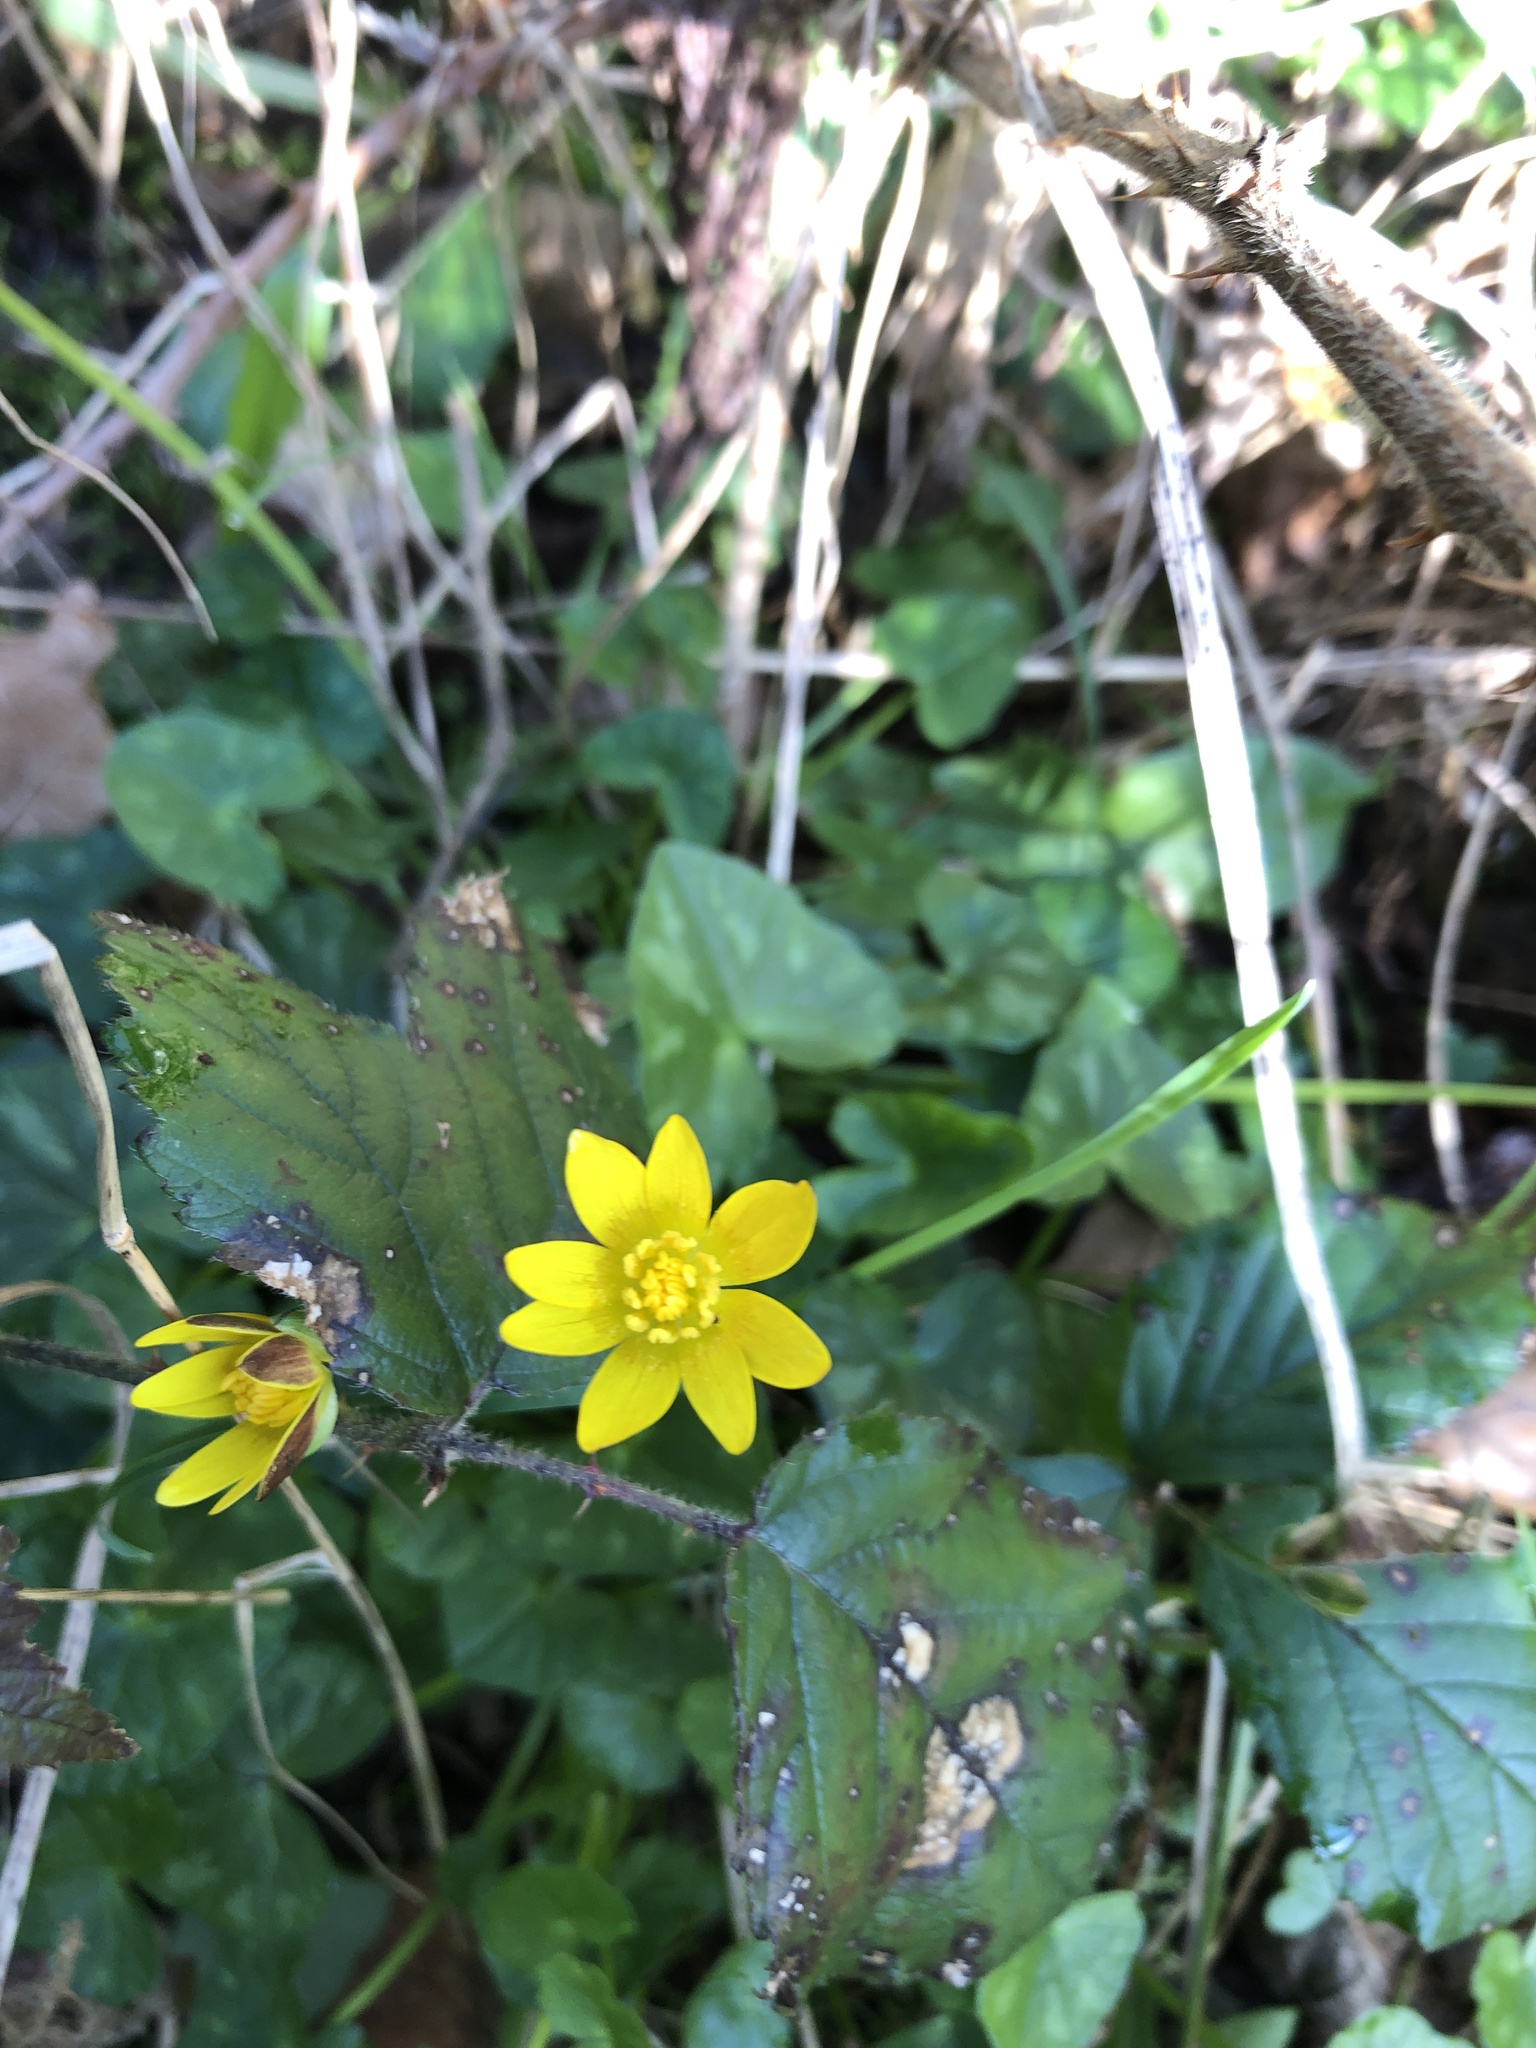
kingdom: Plantae
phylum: Tracheophyta
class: Magnoliopsida
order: Ranunculales
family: Ranunculaceae
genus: Ficaria
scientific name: Ficaria verna
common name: Lesser celandine
